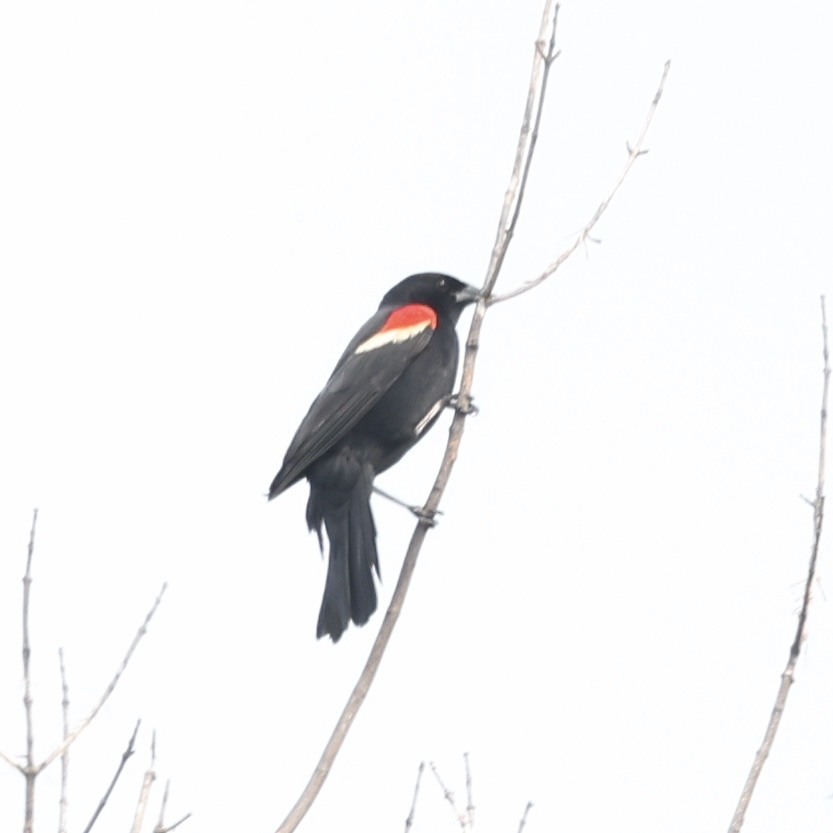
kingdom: Animalia
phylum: Chordata
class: Aves
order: Passeriformes
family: Icteridae
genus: Agelaius
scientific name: Agelaius phoeniceus
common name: Red-winged blackbird
